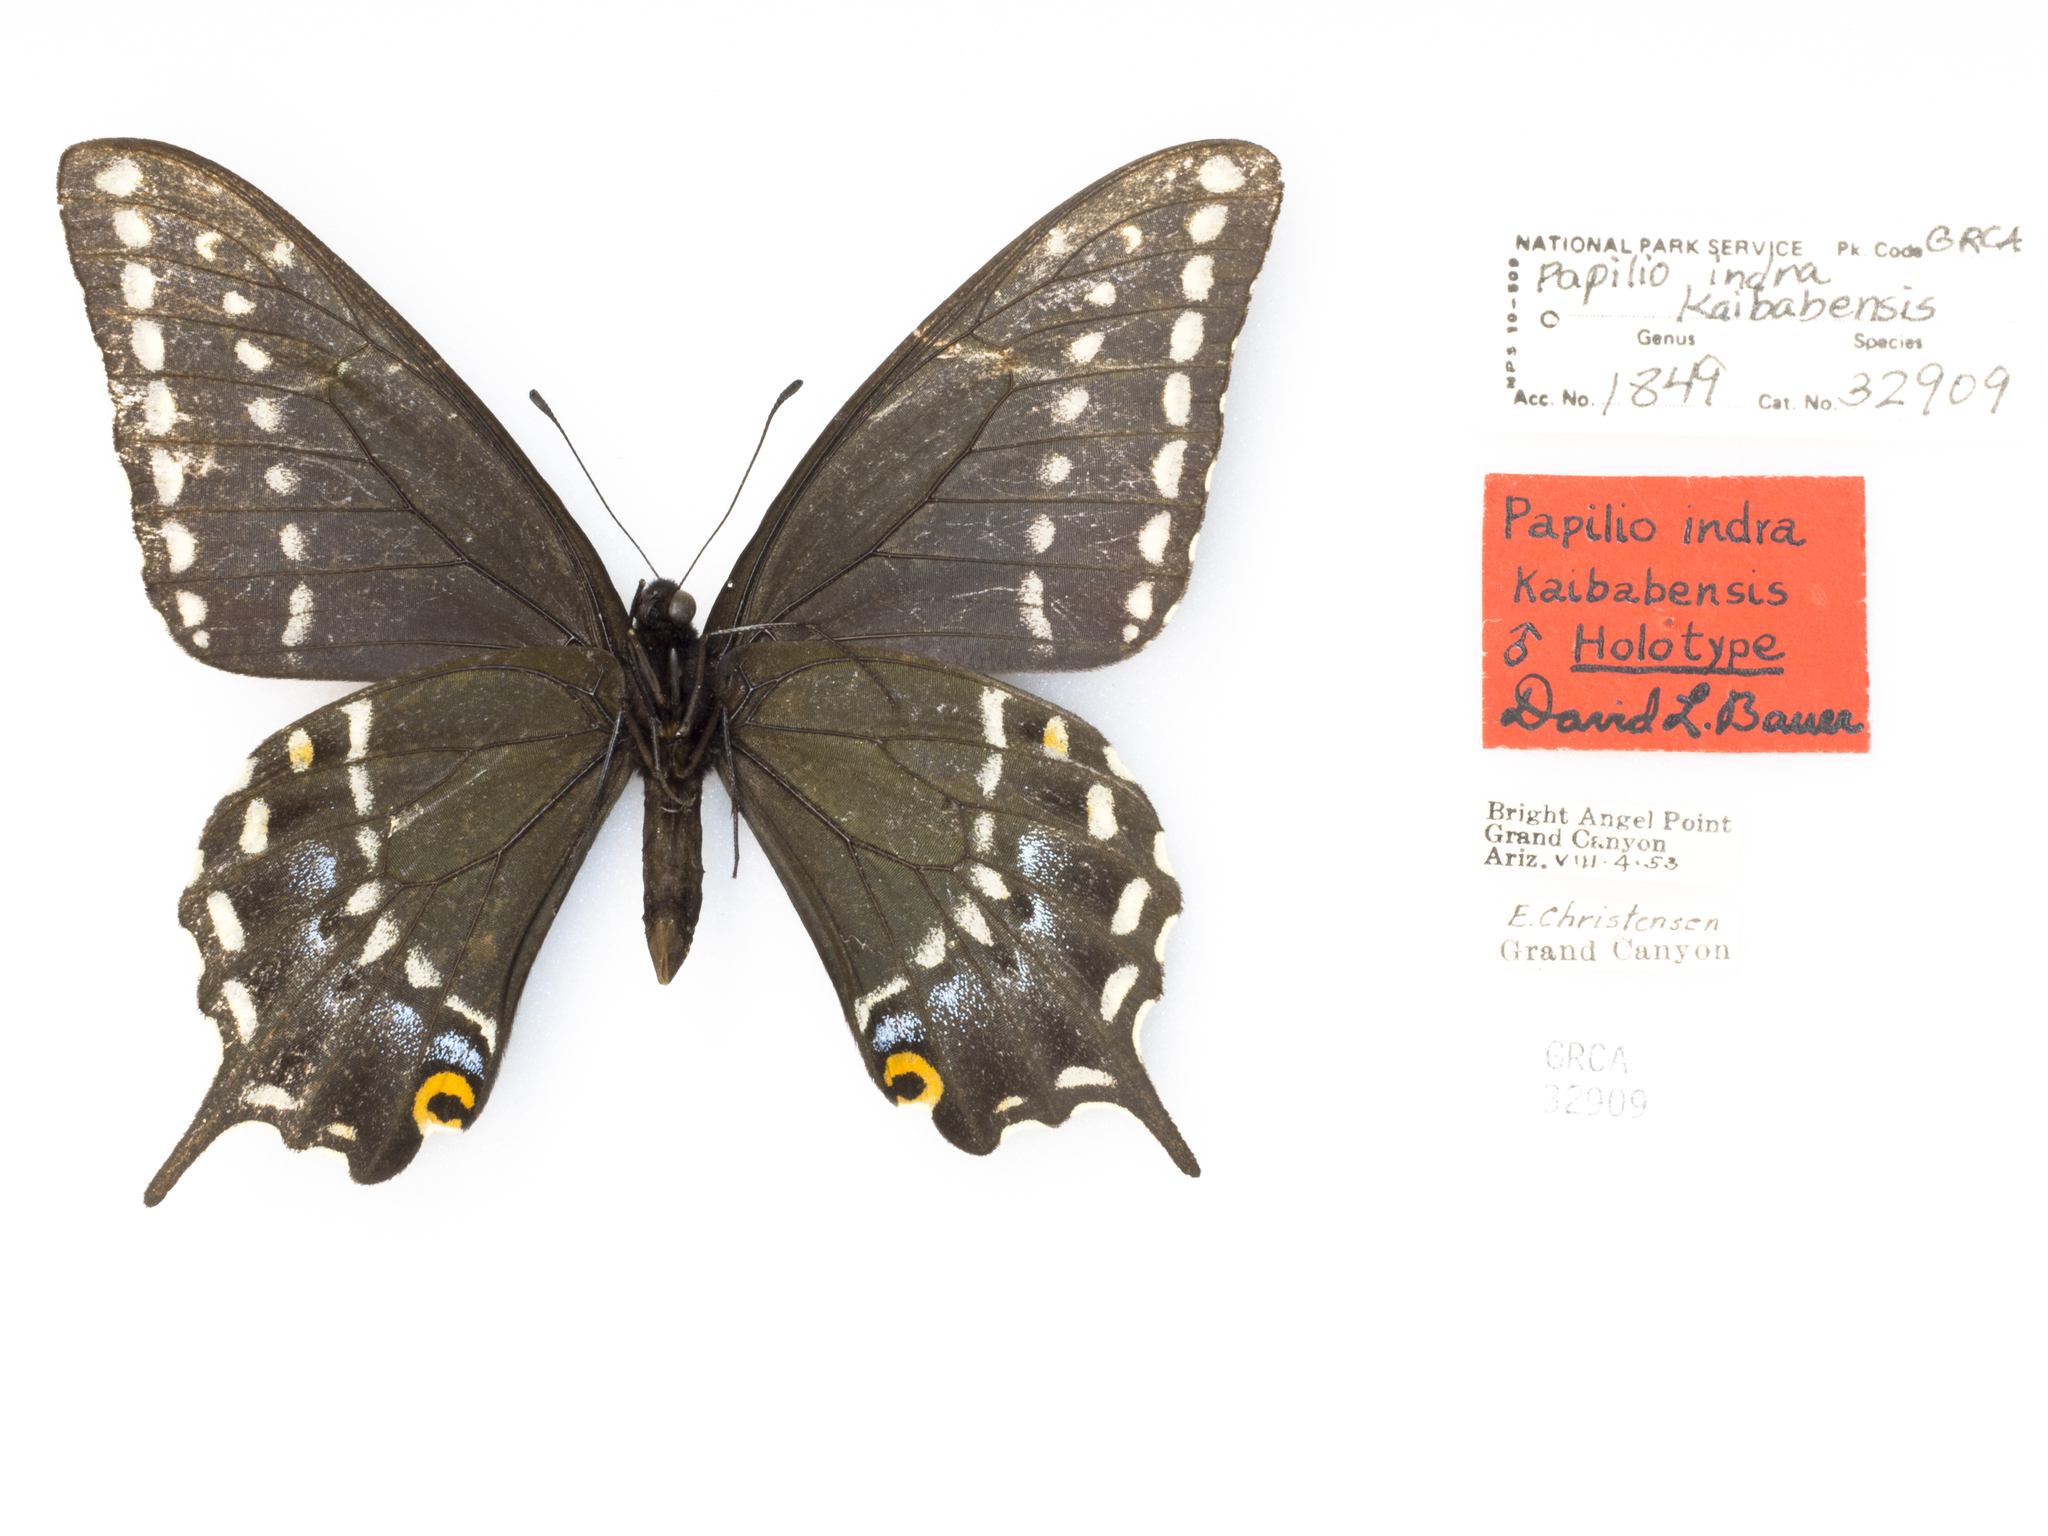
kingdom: Animalia
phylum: Arthropoda
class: Insecta
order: Lepidoptera
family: Papilionidae
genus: Papilio
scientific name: Papilio indra
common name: Cliff swallowtail
